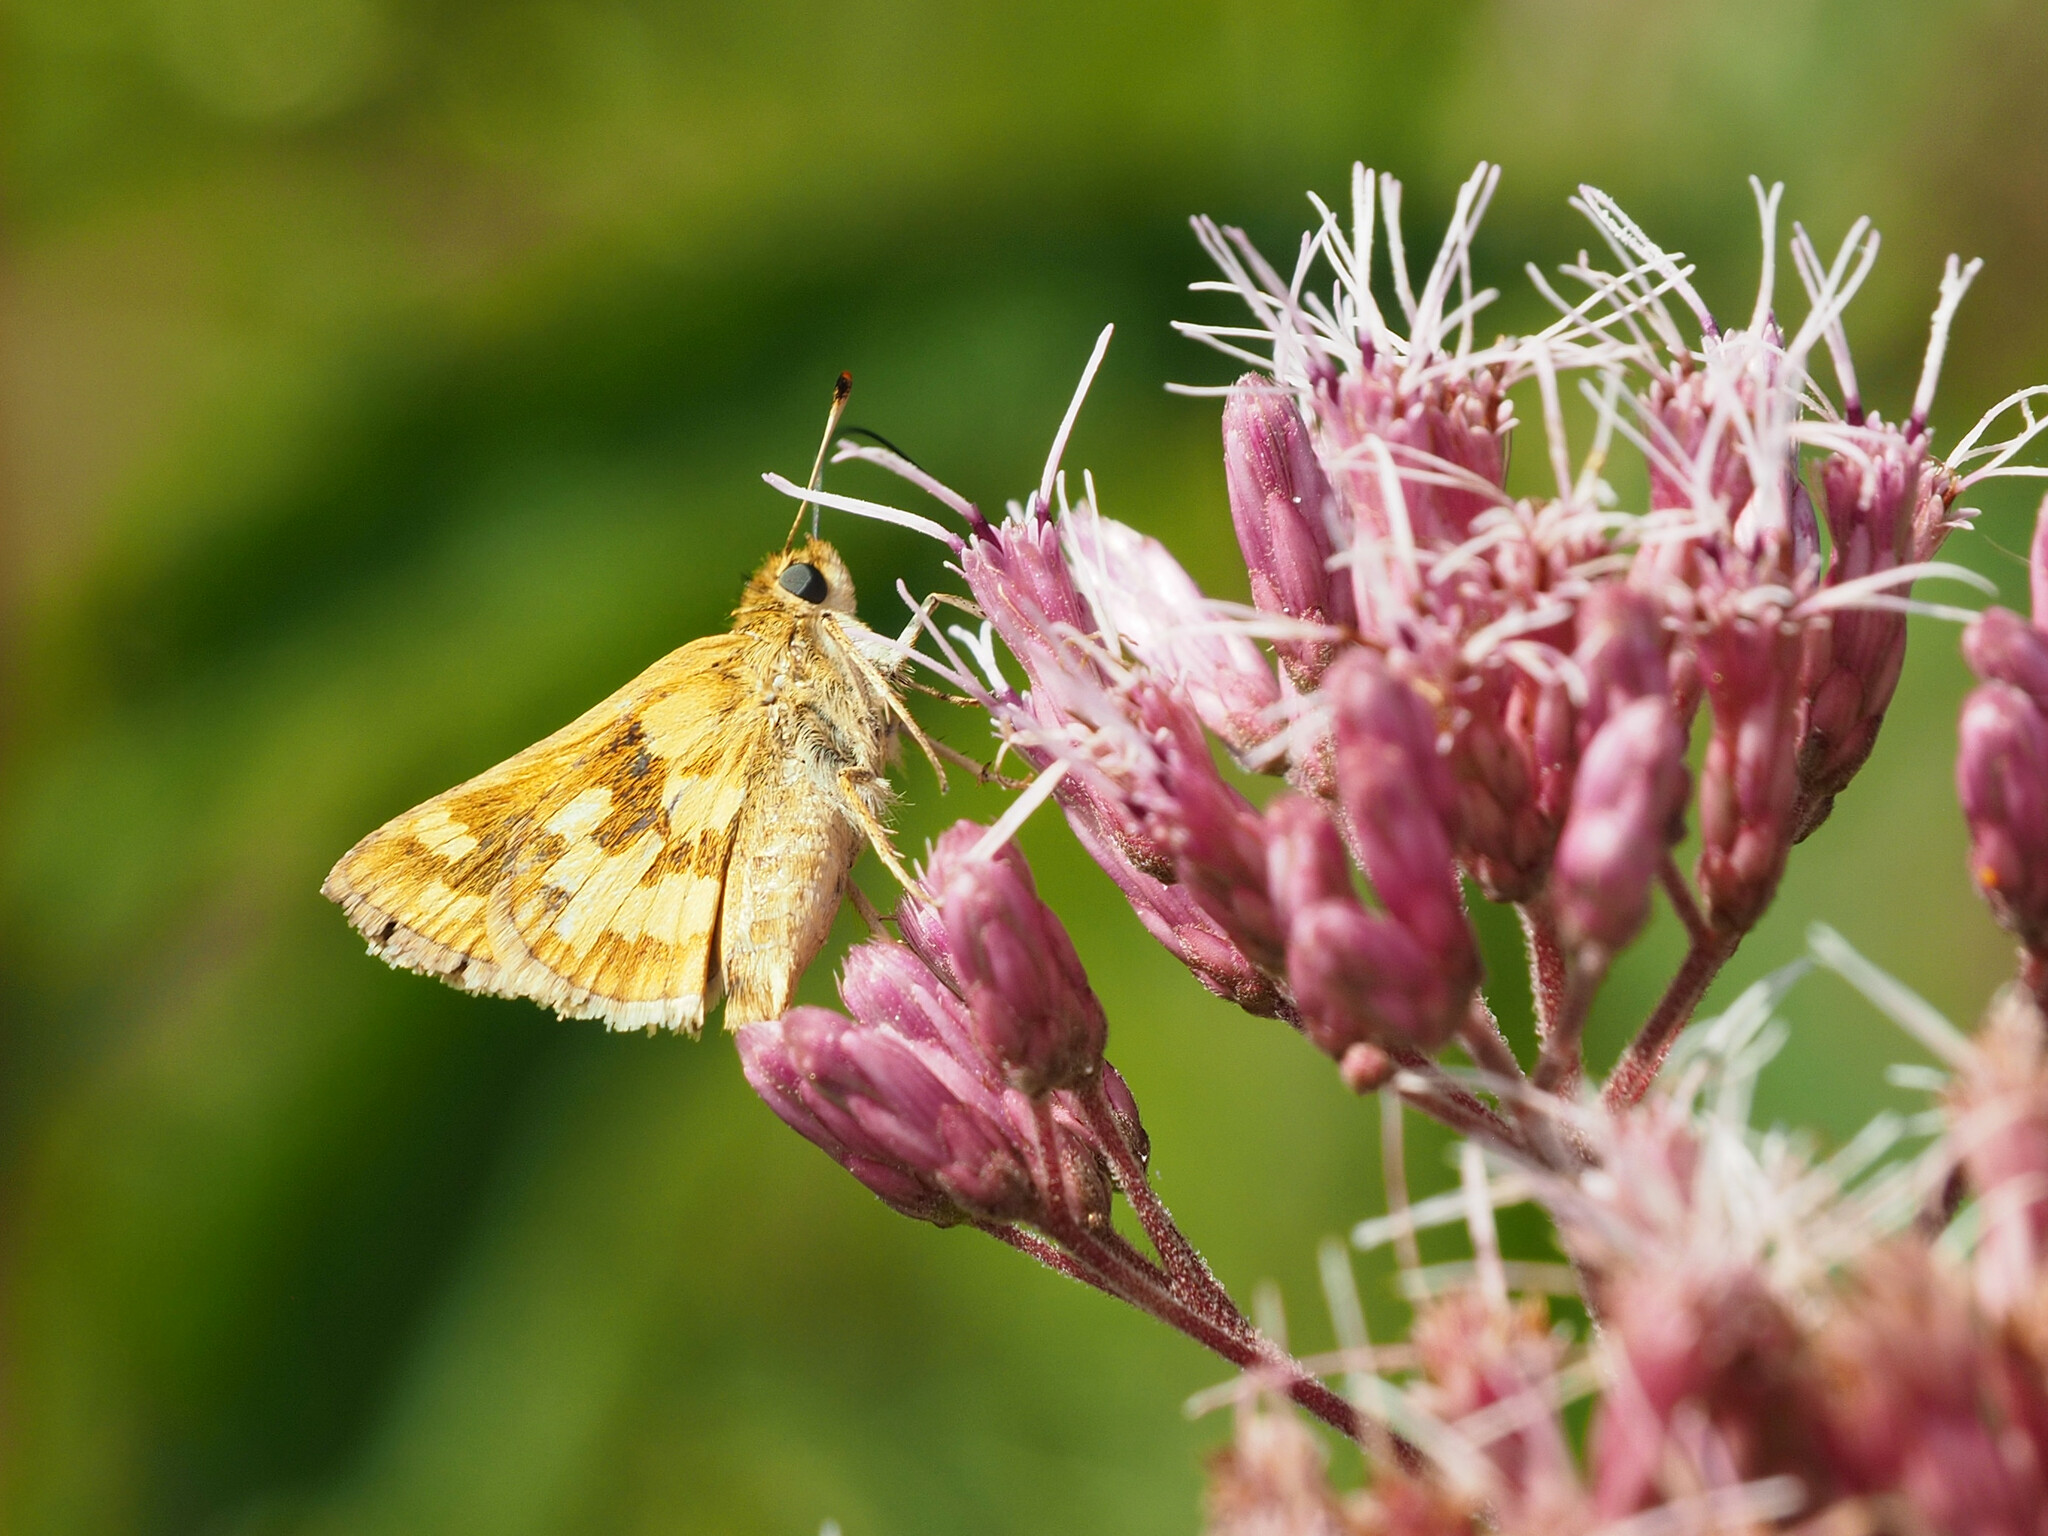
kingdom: Animalia
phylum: Arthropoda
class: Insecta
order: Lepidoptera
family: Hesperiidae
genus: Polites
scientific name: Polites coras
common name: Peck's skipper
